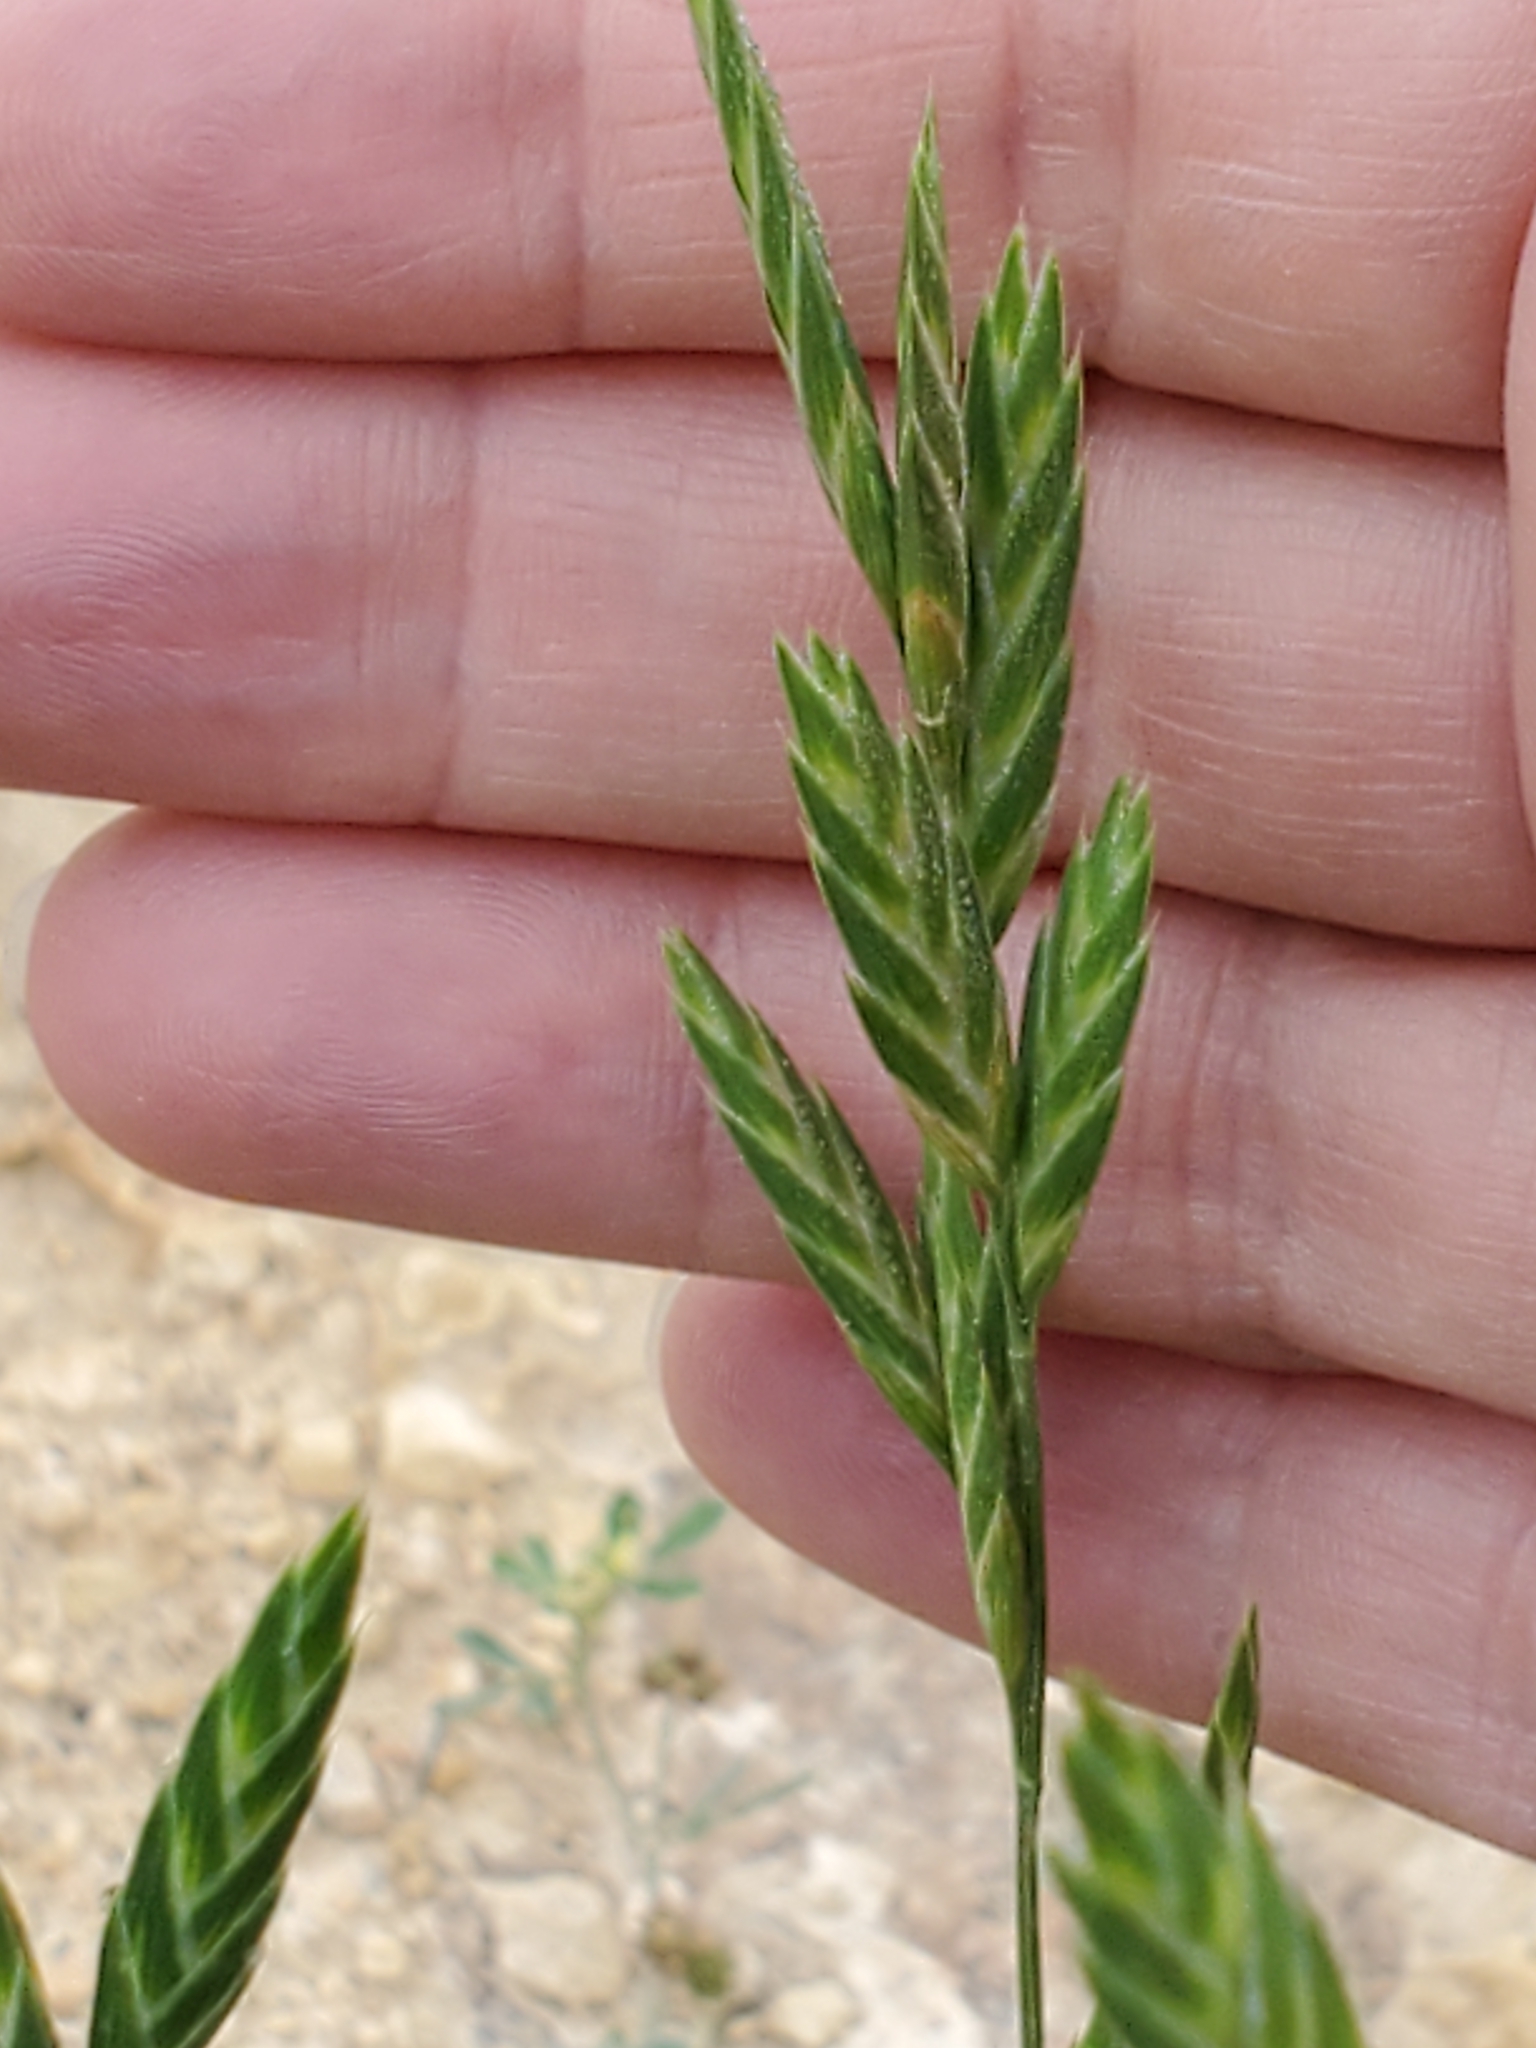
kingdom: Plantae
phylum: Tracheophyta
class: Liliopsida
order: Poales
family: Poaceae
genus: Bromus
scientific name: Bromus catharticus
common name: Rescuegrass
